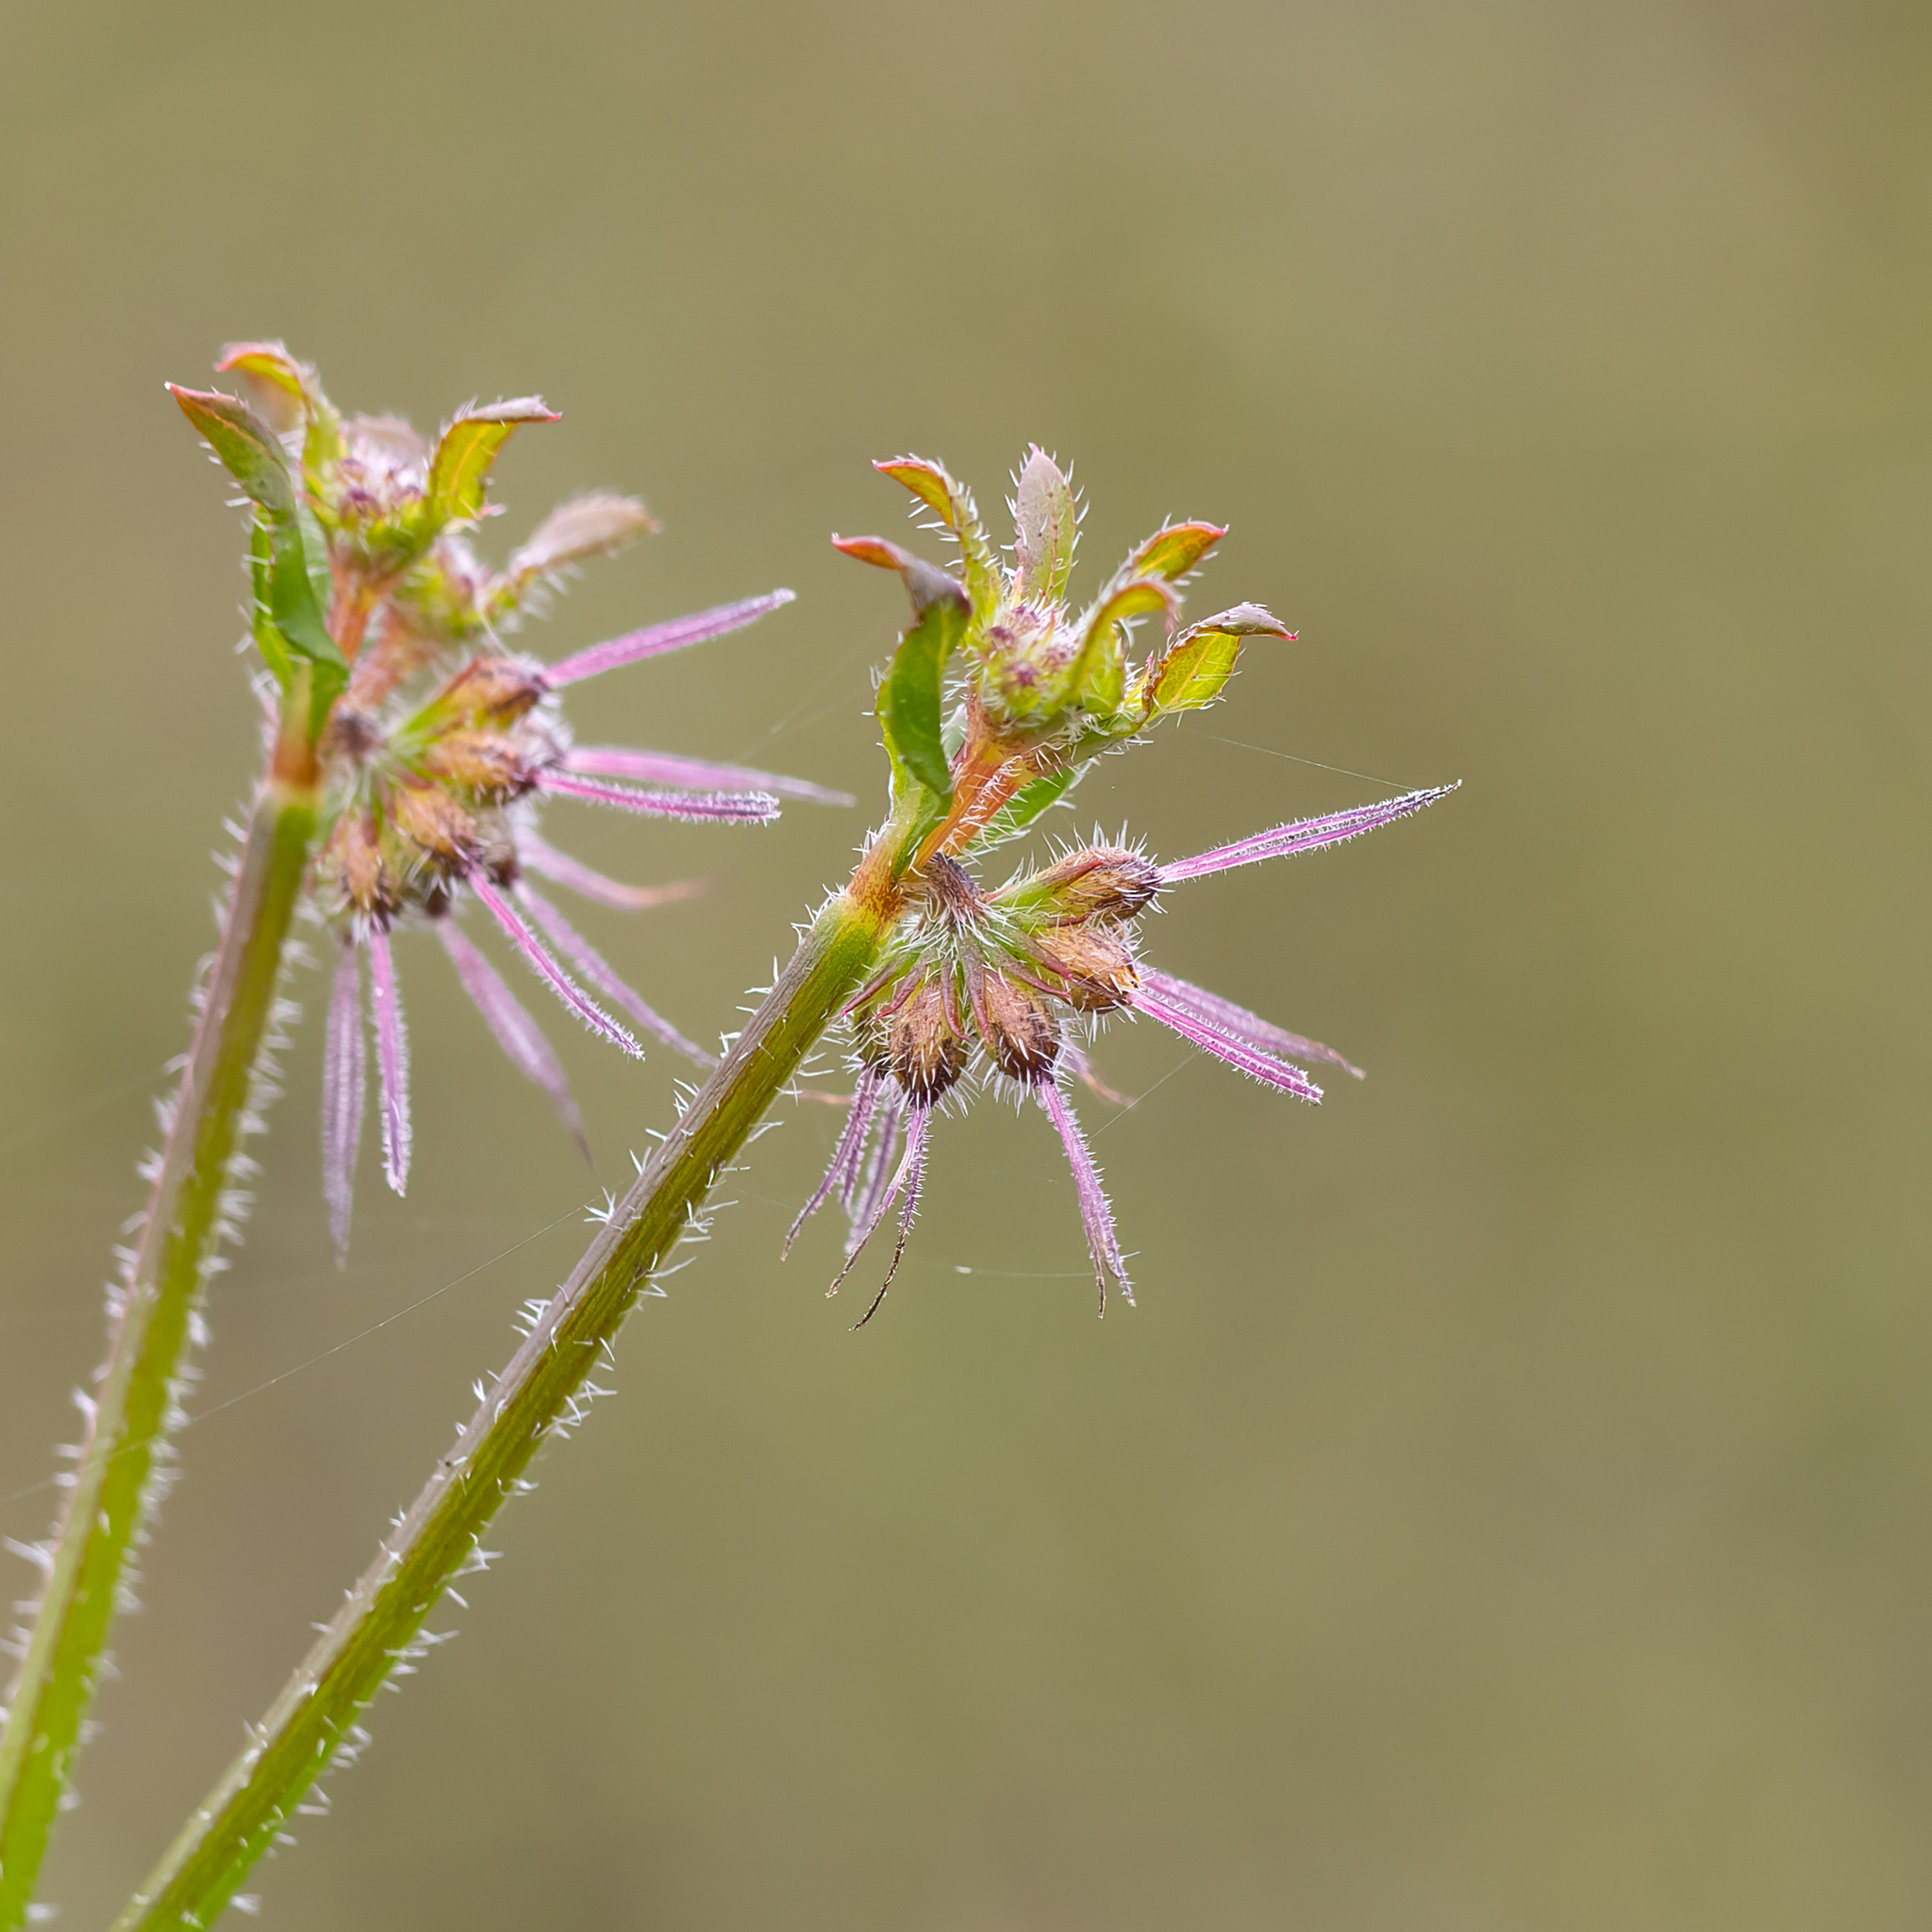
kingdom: Plantae
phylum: Tracheophyta
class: Magnoliopsida
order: Gentianales
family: Rubiaceae
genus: Opercularia
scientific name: Opercularia hispidula
